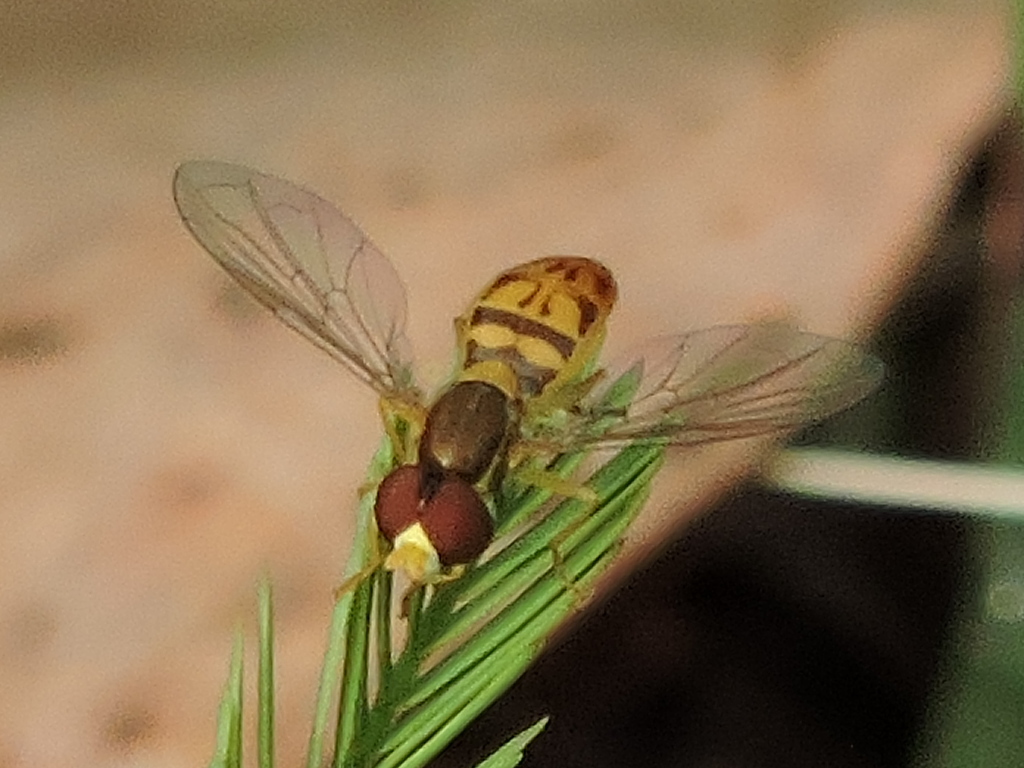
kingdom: Animalia
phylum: Arthropoda
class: Insecta
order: Diptera
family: Syrphidae
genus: Toxomerus
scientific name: Toxomerus marginatus
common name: Syrphid fly
